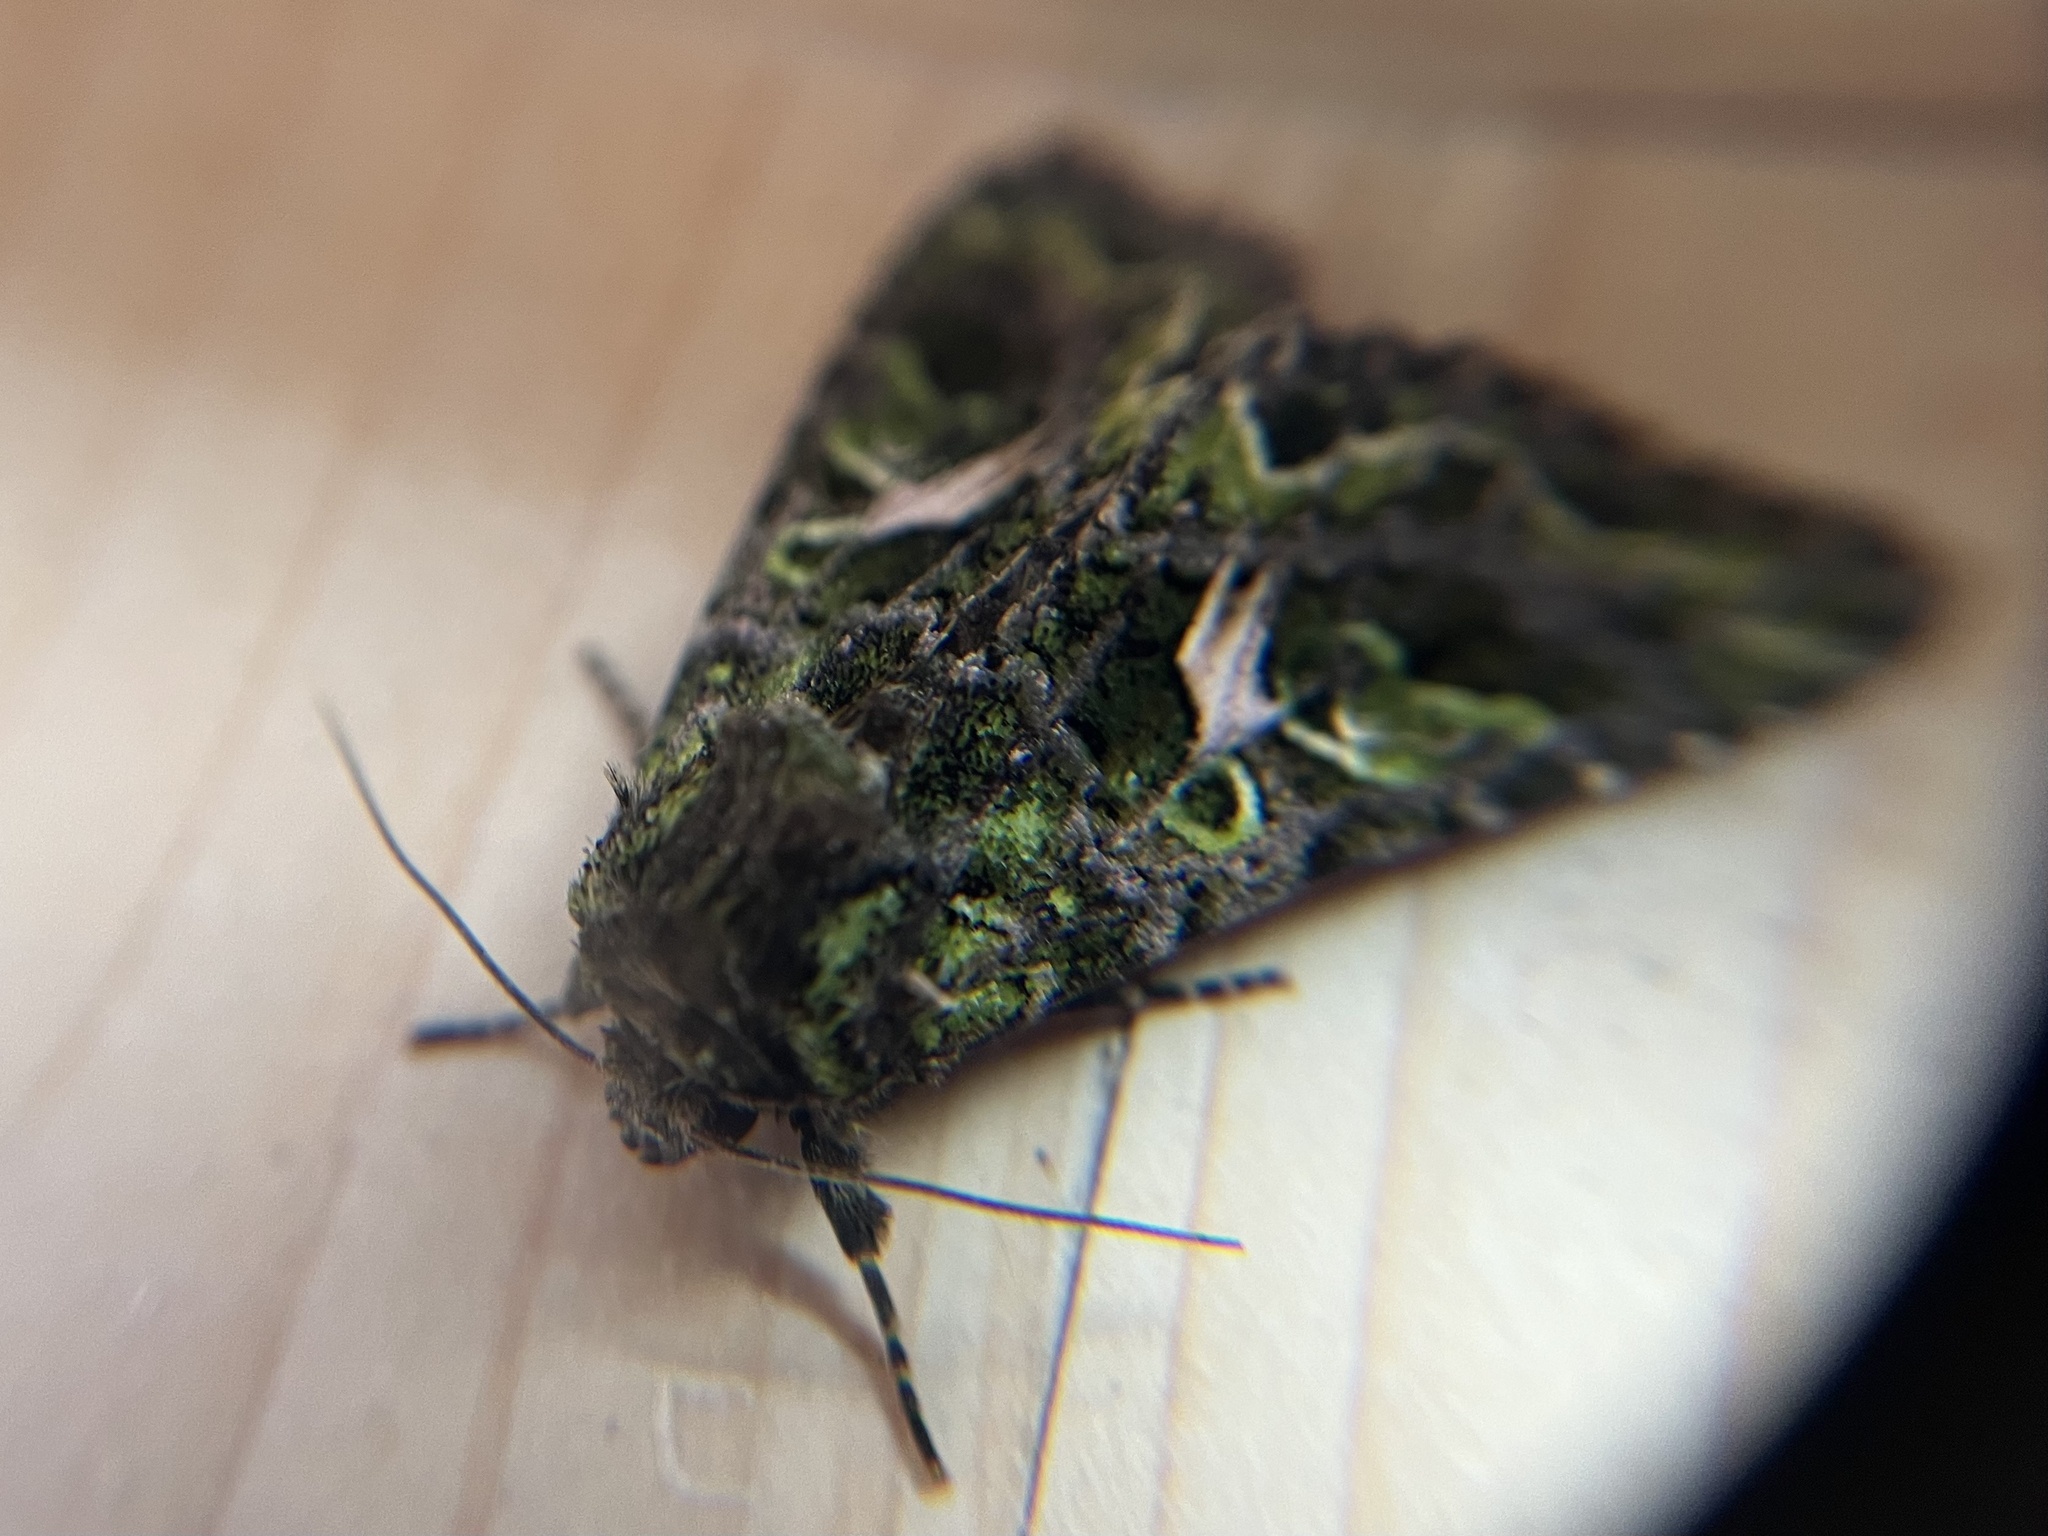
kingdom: Animalia
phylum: Arthropoda
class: Insecta
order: Lepidoptera
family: Noctuidae
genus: Trachea
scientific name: Trachea atriplicis
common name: Orache moth
